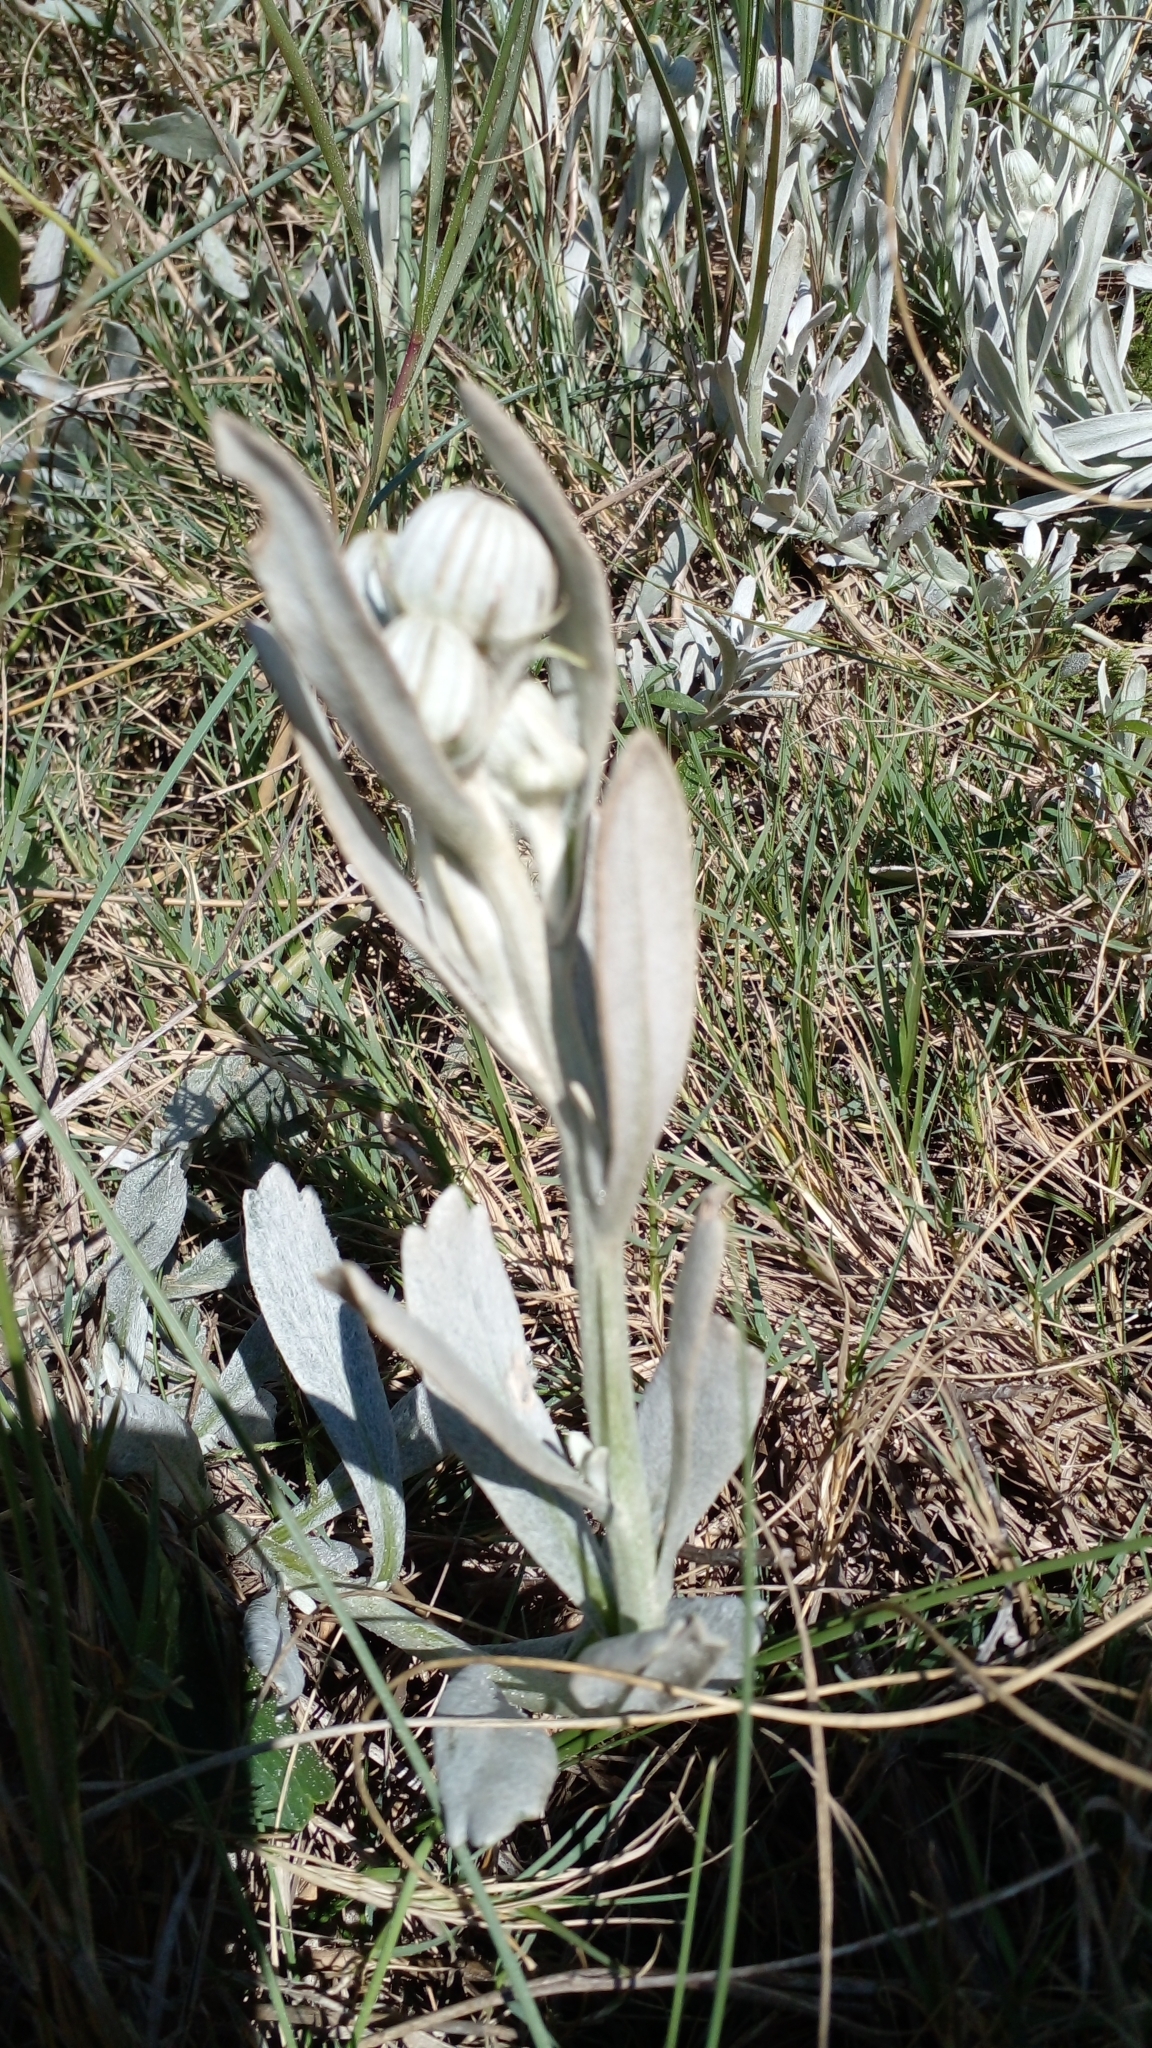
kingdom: Plantae
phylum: Tracheophyta
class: Magnoliopsida
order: Asterales
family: Asteraceae
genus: Senecio
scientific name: Senecio crassiflorus
